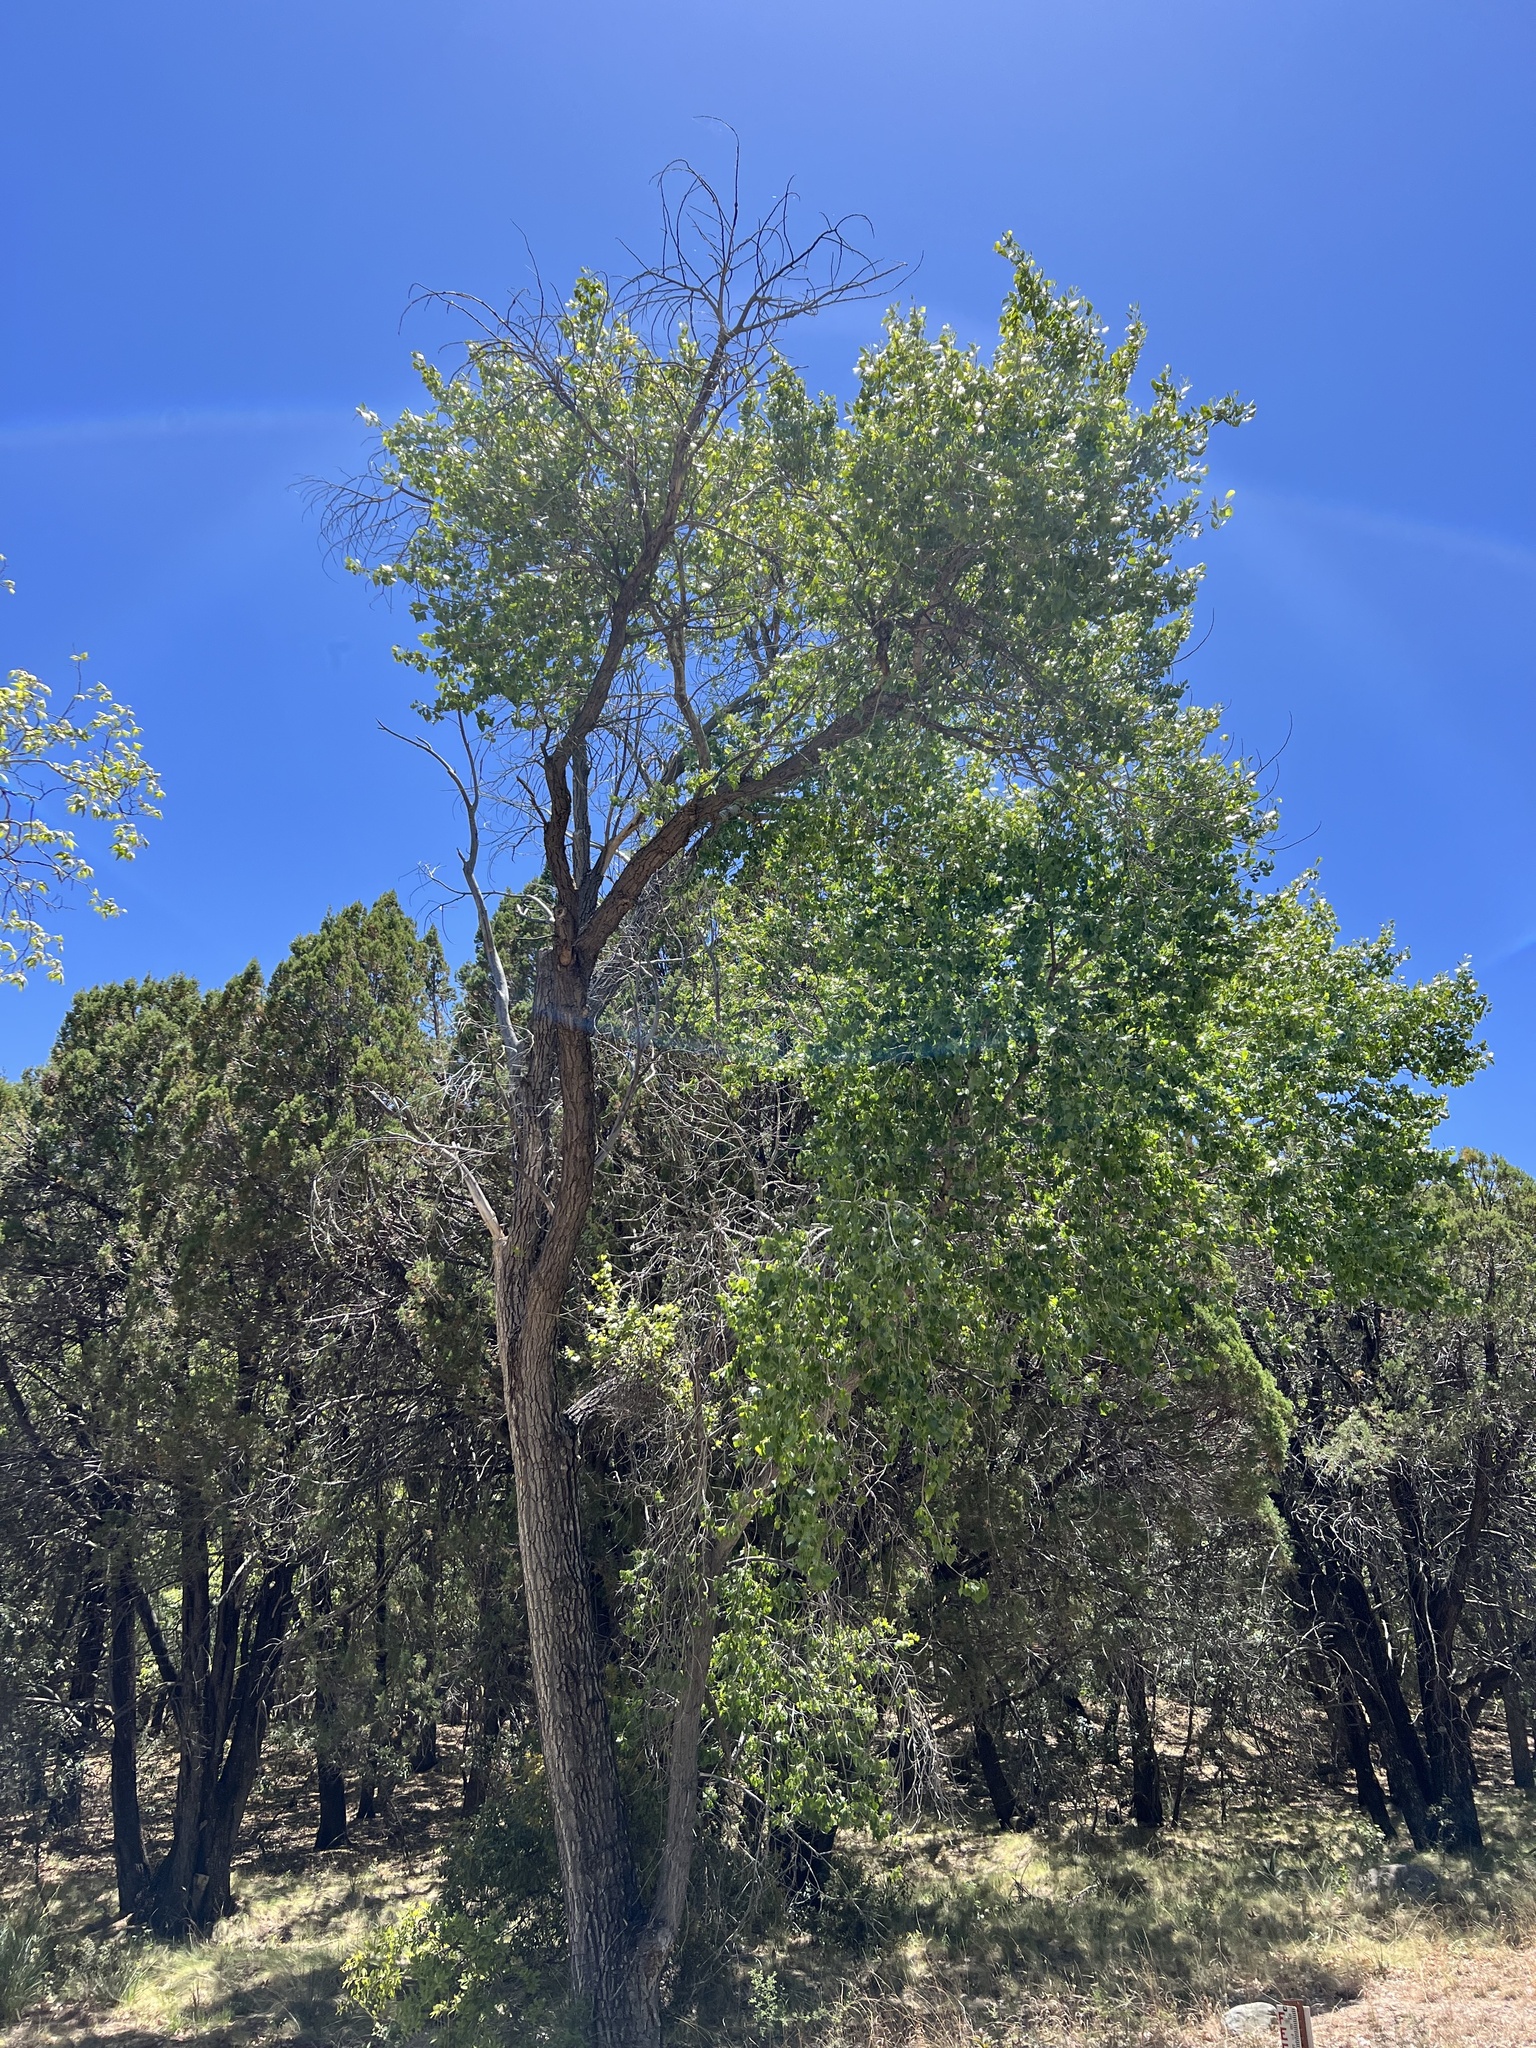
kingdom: Plantae
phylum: Tracheophyta
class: Magnoliopsida
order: Malpighiales
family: Salicaceae
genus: Populus
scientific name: Populus fremontii
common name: Fremont's cottonwood
